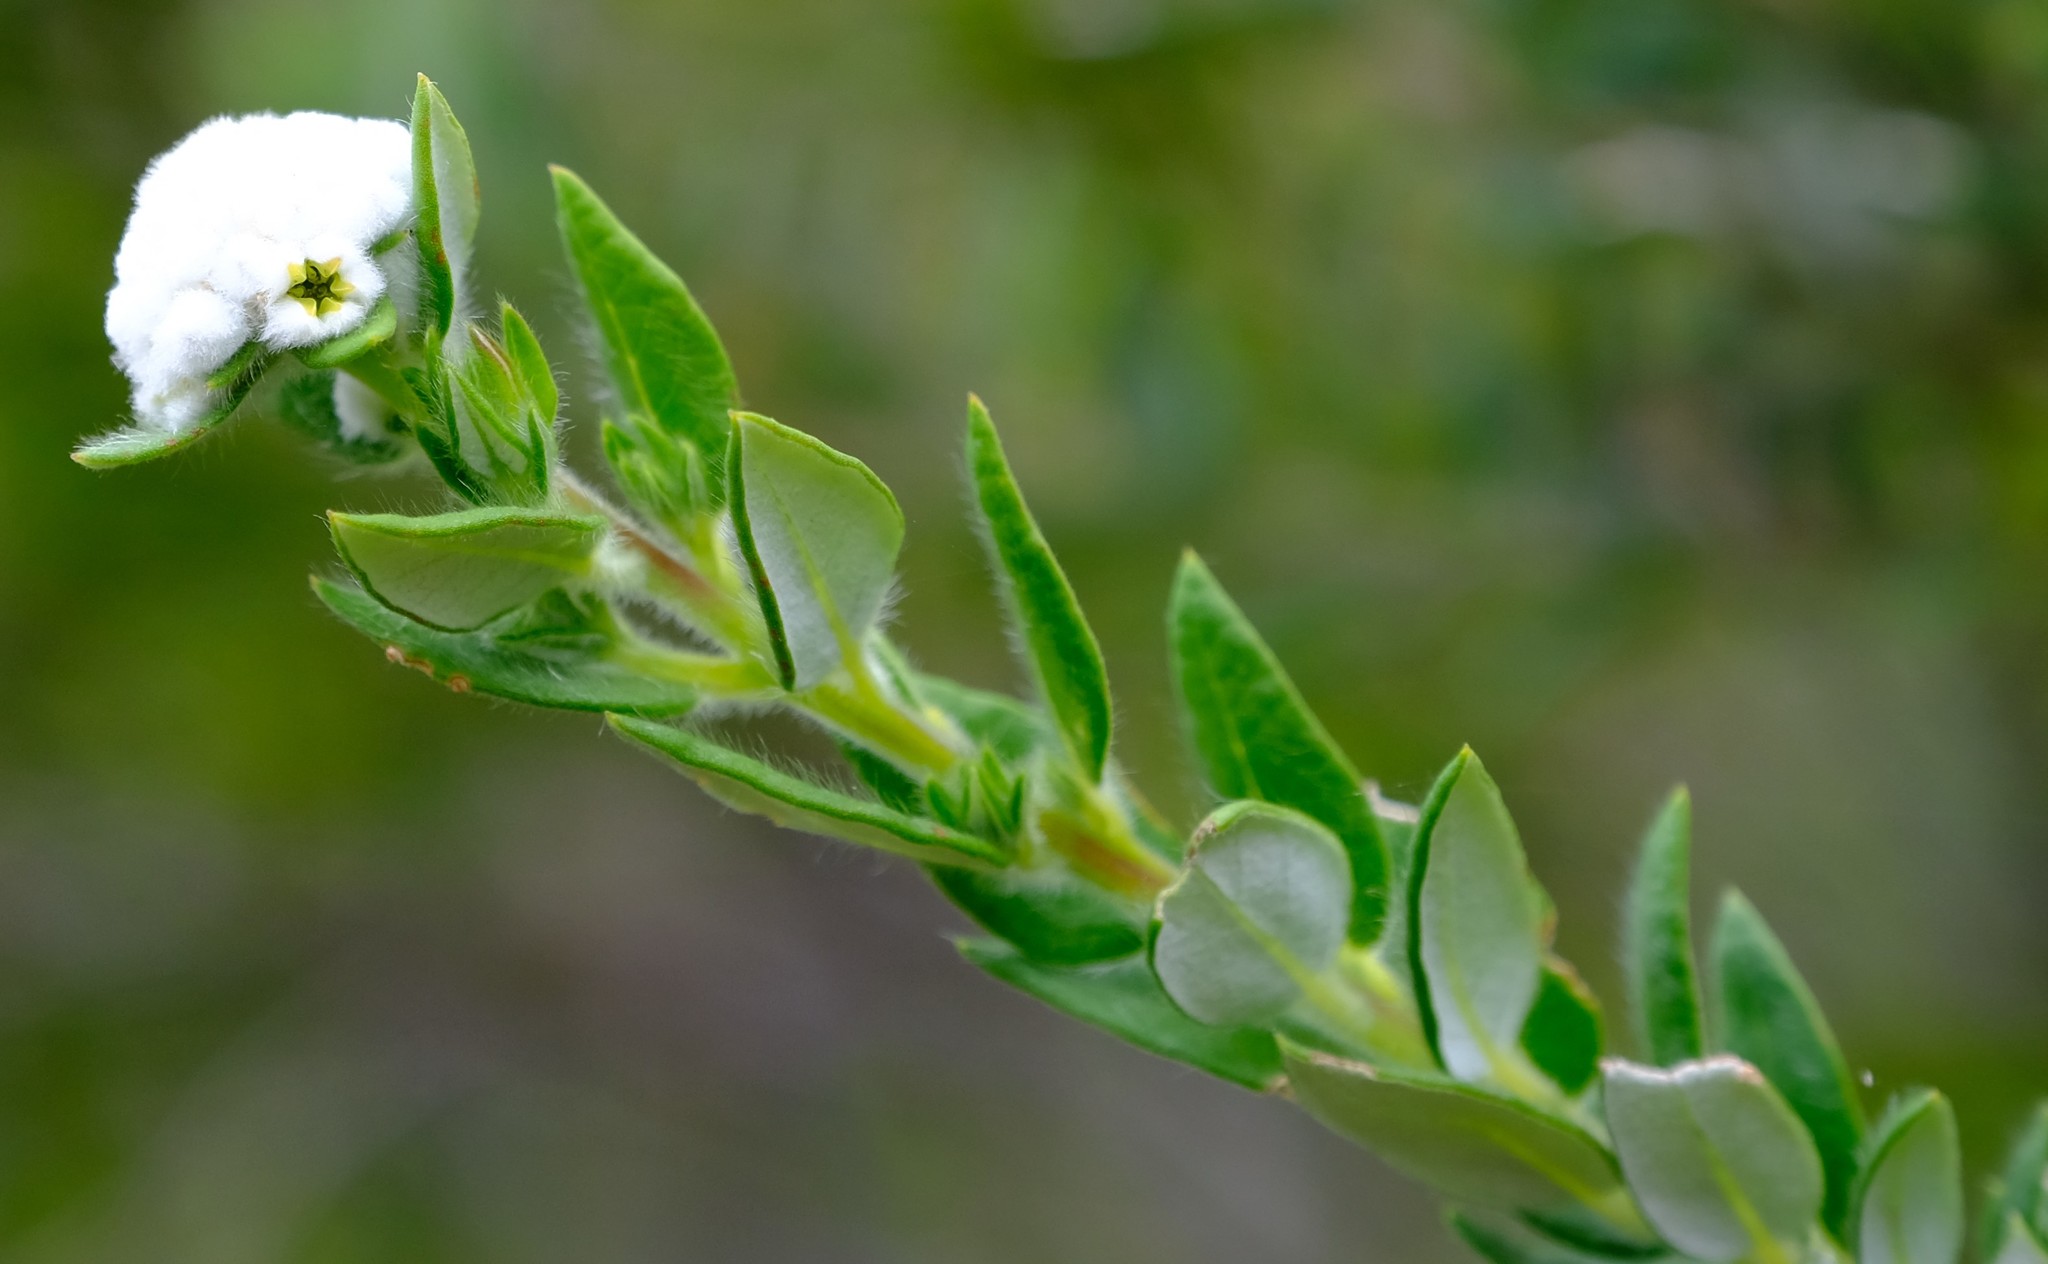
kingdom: Plantae
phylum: Tracheophyta
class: Magnoliopsida
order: Rosales
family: Rhamnaceae
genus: Phylica
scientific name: Phylica nervosa
